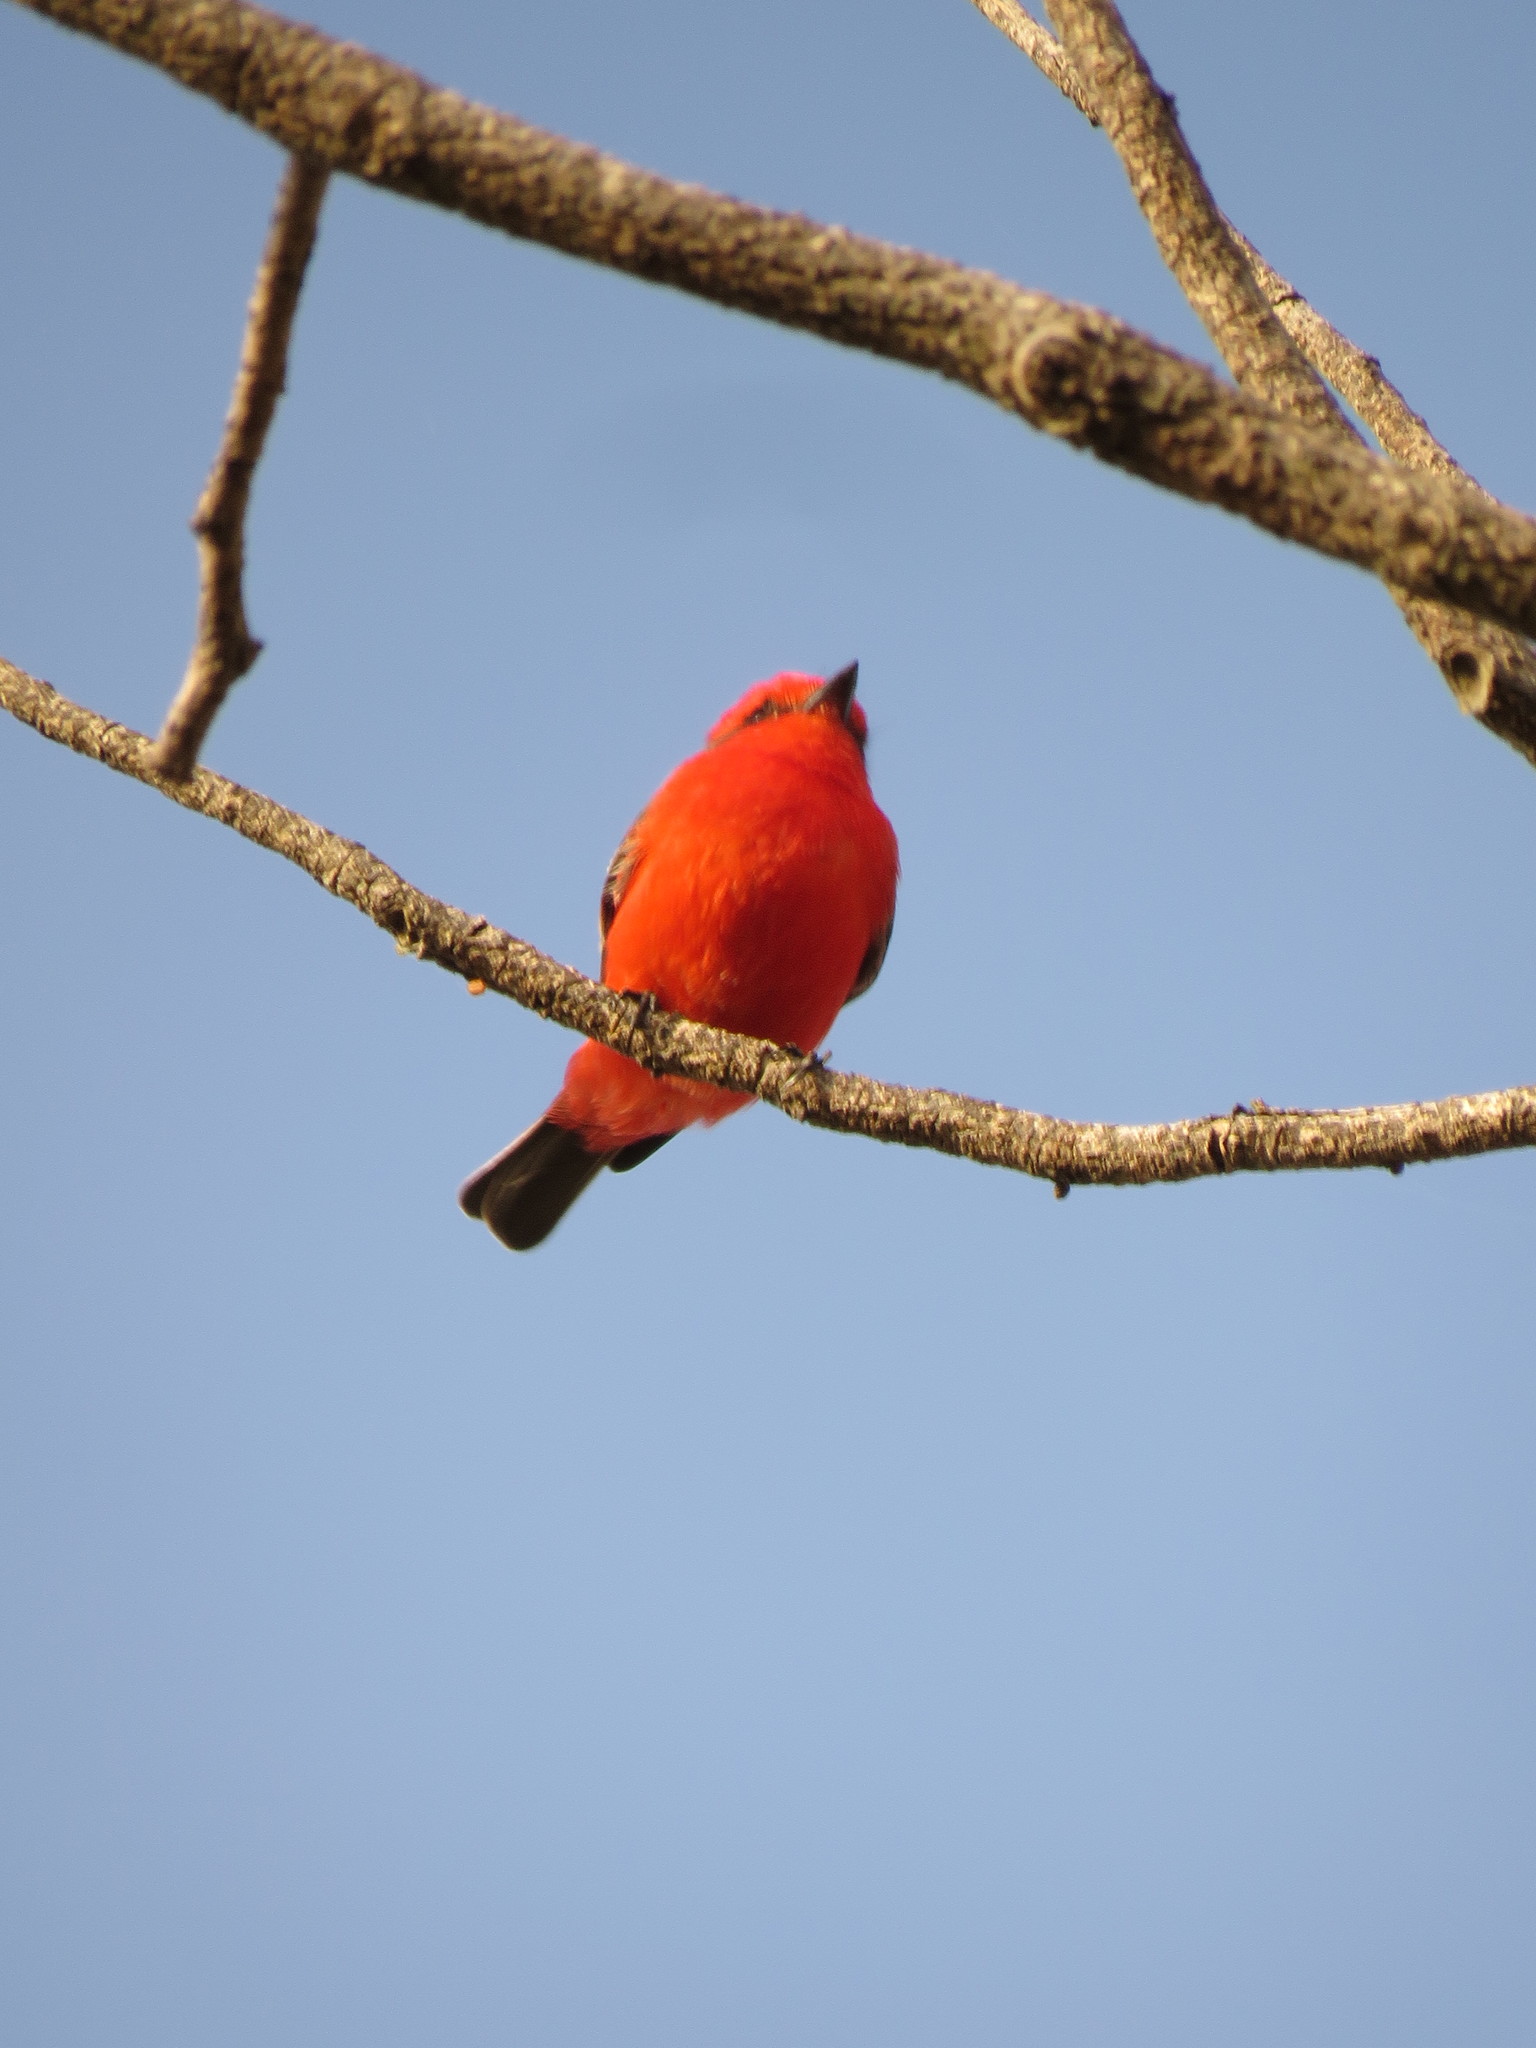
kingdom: Animalia
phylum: Chordata
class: Aves
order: Passeriformes
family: Tyrannidae
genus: Pyrocephalus
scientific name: Pyrocephalus rubinus
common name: Vermilion flycatcher
